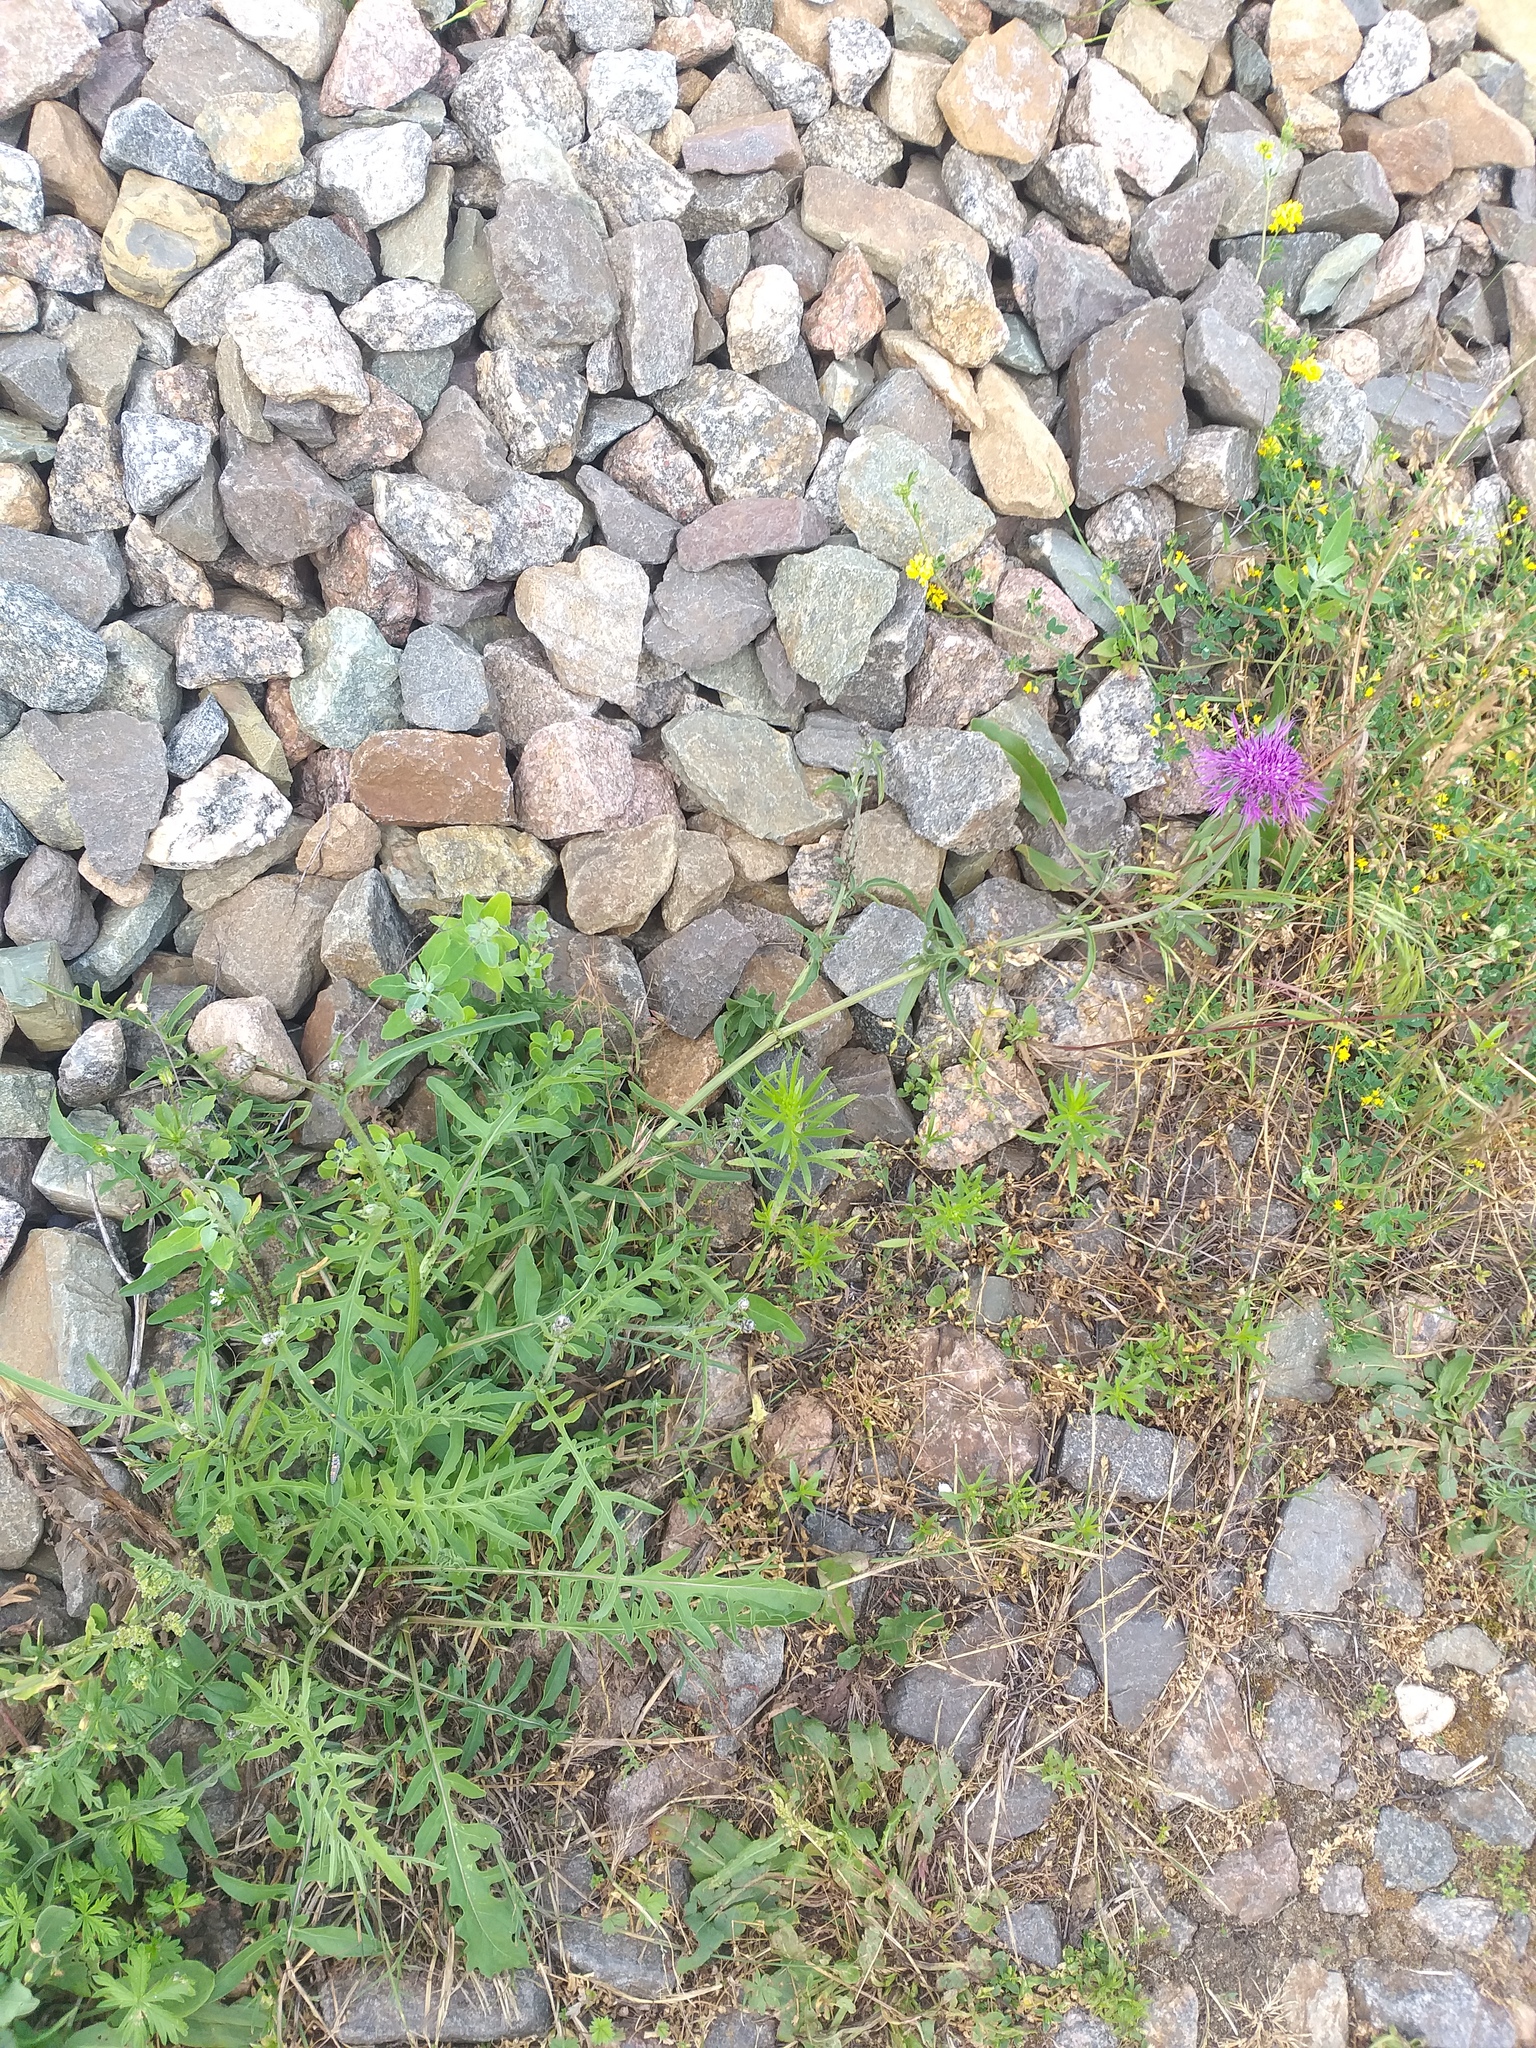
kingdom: Plantae
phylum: Tracheophyta
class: Magnoliopsida
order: Asterales
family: Asteraceae
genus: Centaurea
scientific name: Centaurea scabiosa
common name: Greater knapweed
